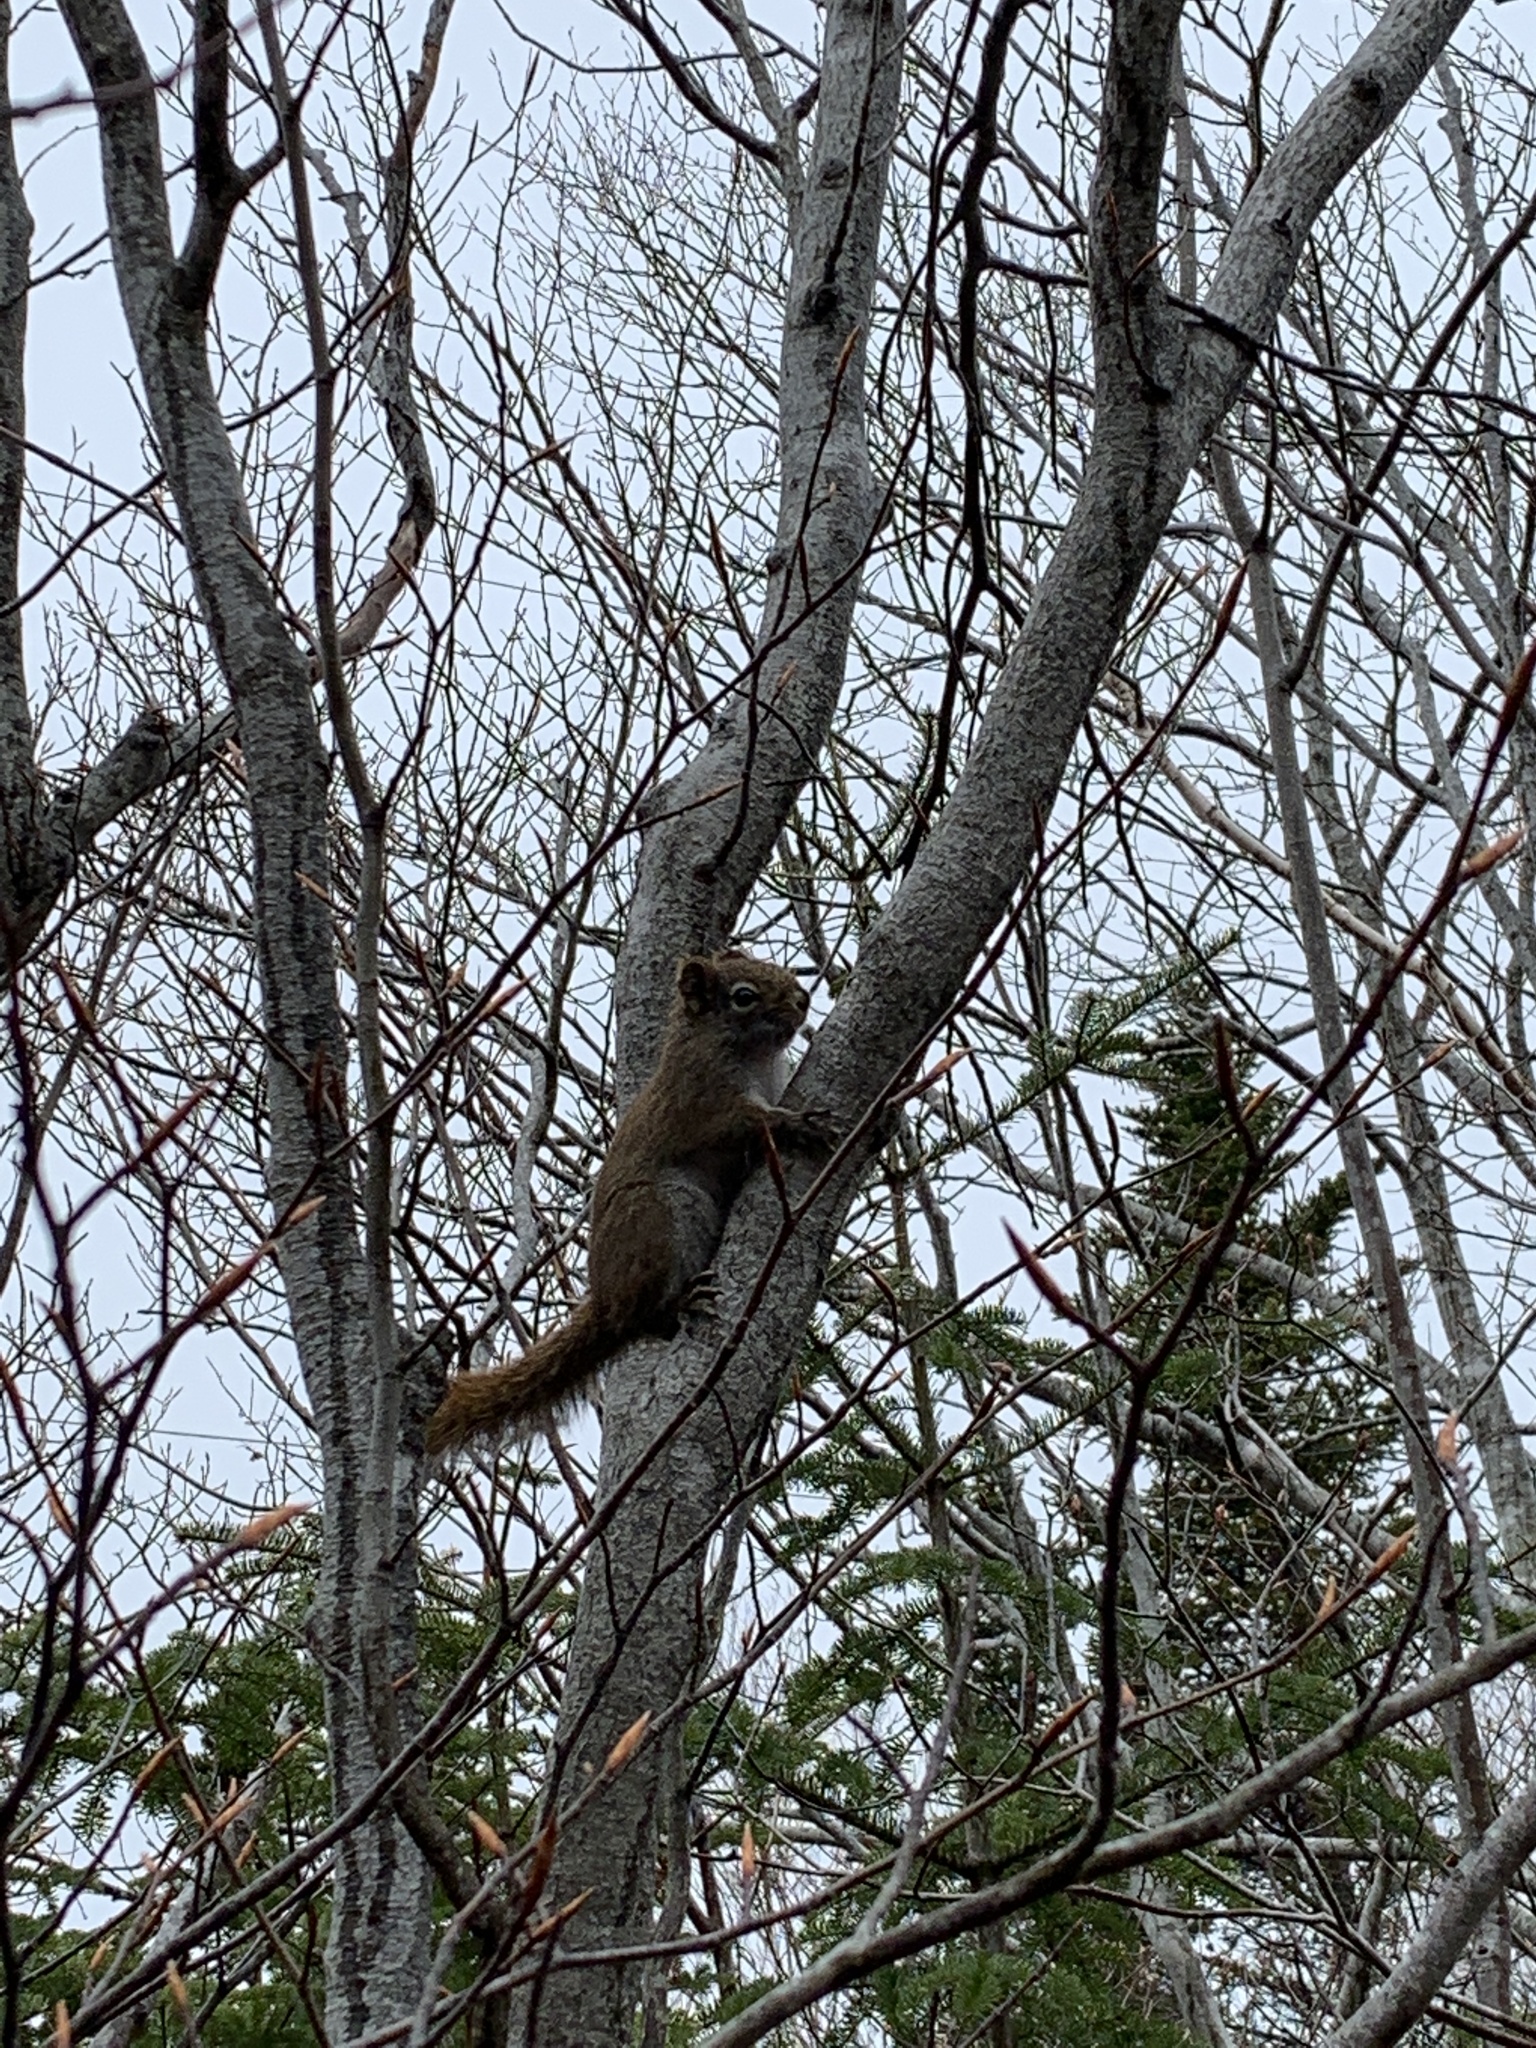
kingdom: Animalia
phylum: Chordata
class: Mammalia
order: Rodentia
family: Sciuridae
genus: Tamiasciurus
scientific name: Tamiasciurus hudsonicus
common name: Red squirrel
